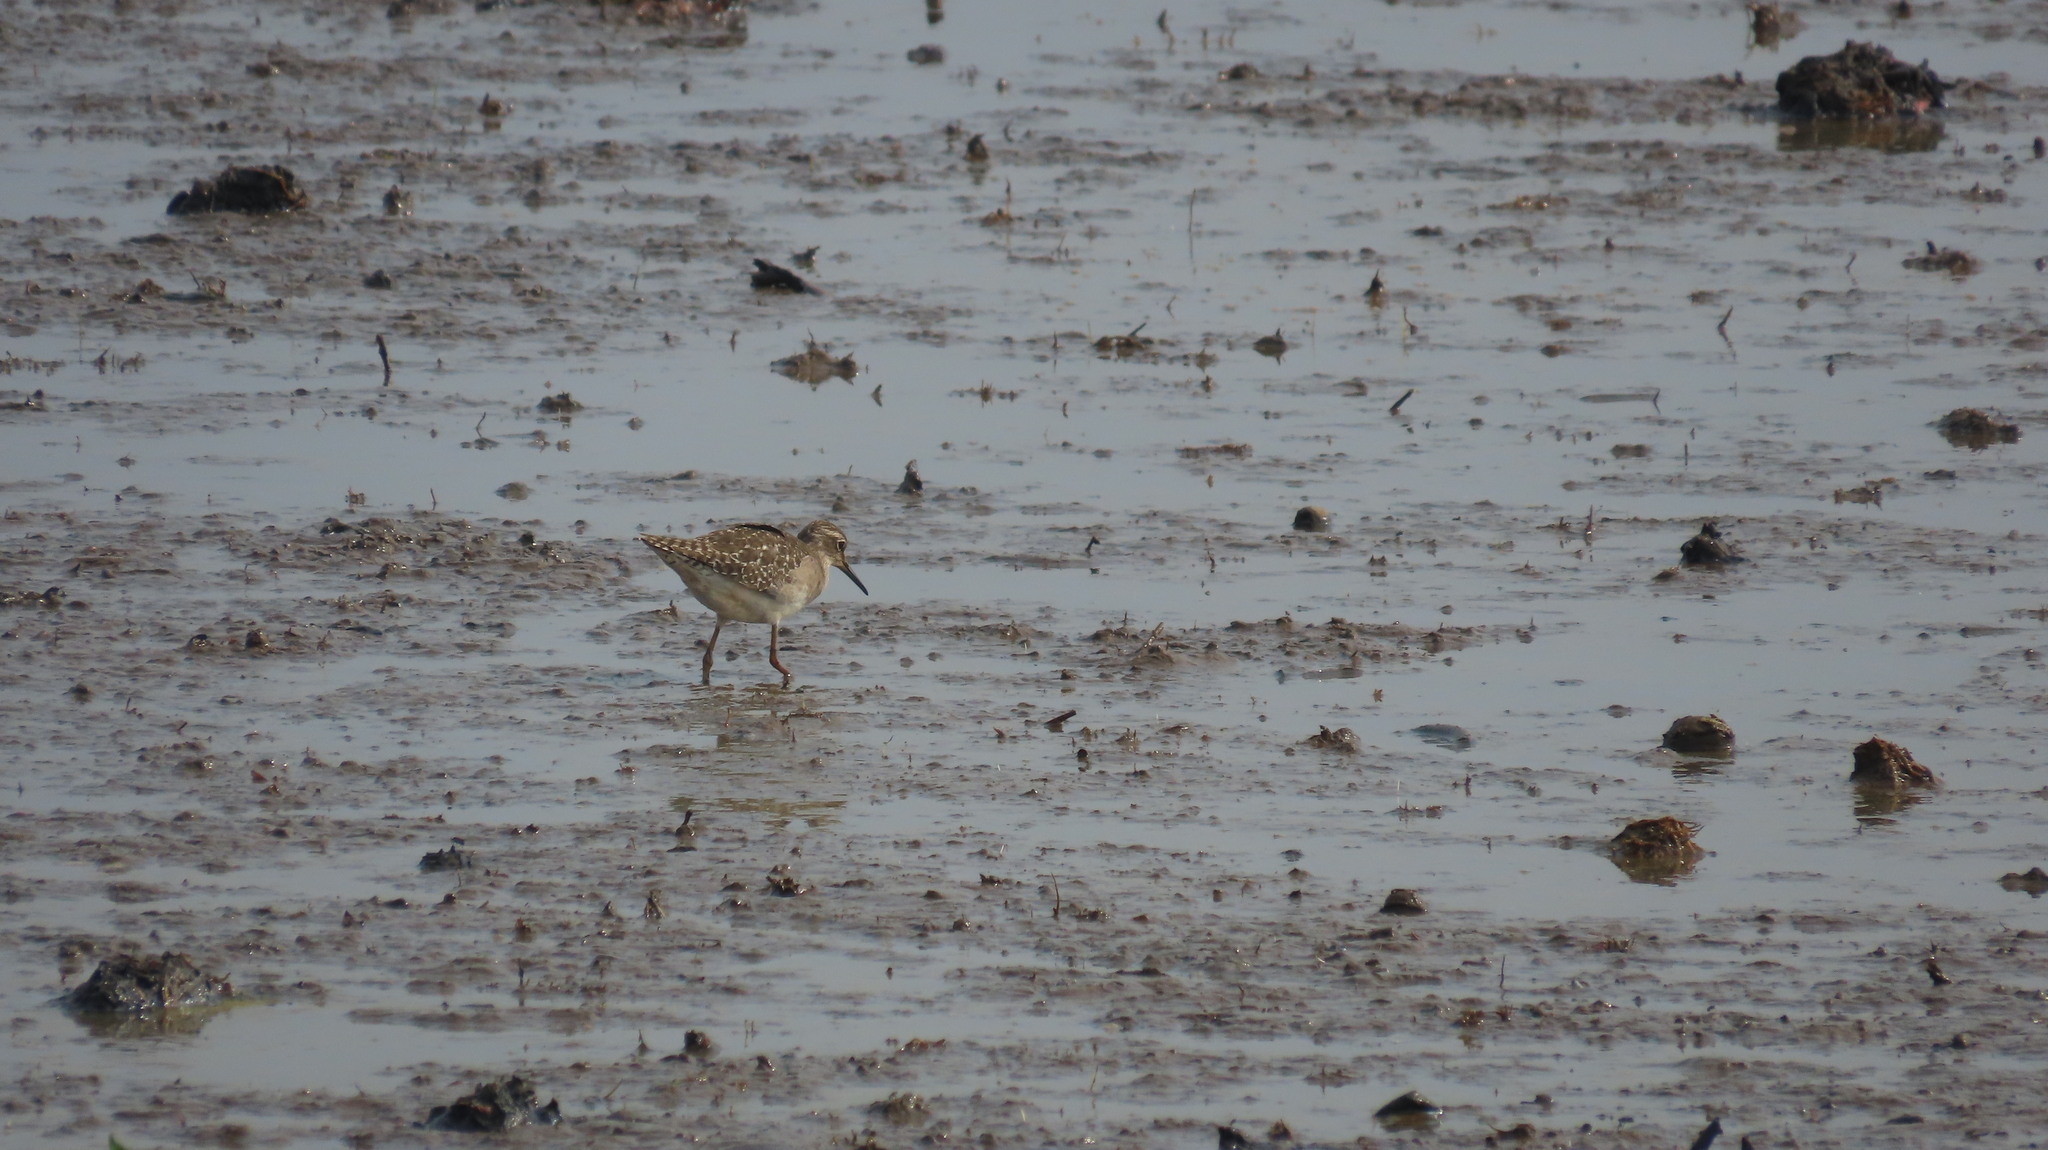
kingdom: Animalia
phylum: Chordata
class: Aves
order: Charadriiformes
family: Scolopacidae
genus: Tringa
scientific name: Tringa glareola
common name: Wood sandpiper
